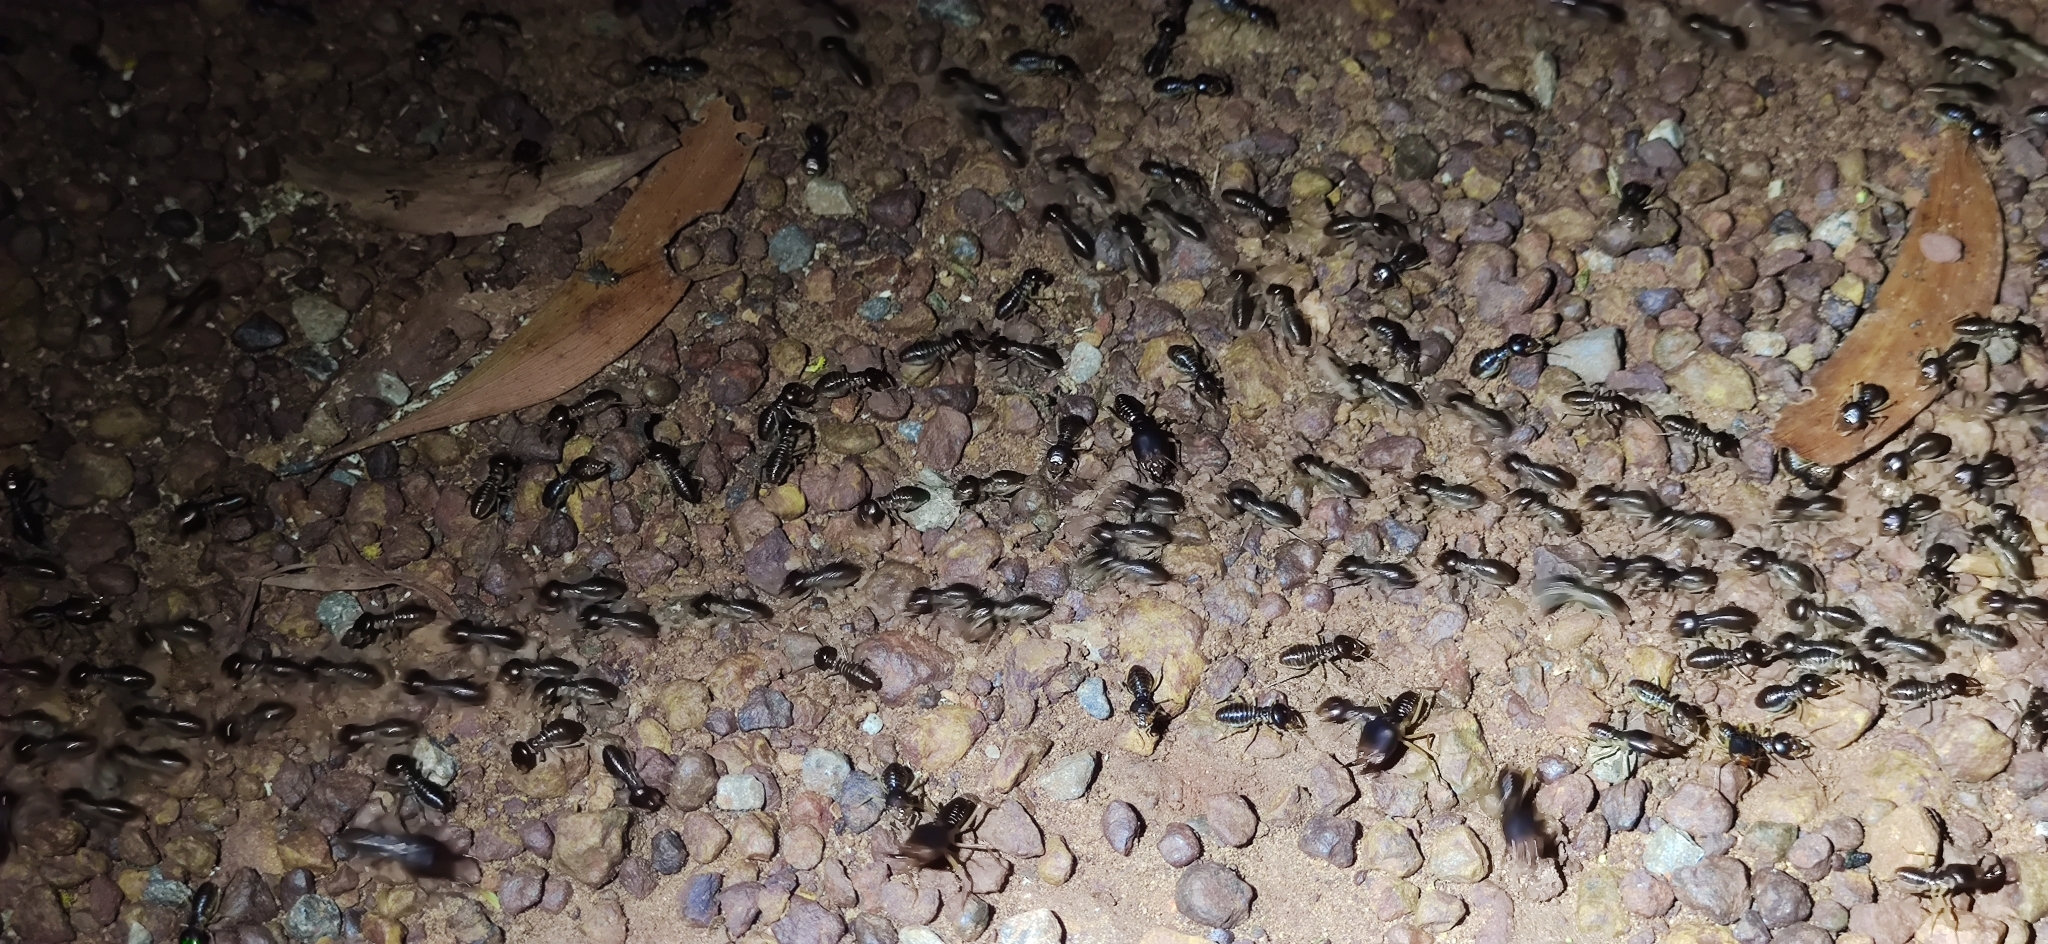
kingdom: Animalia
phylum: Arthropoda
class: Insecta
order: Blattodea
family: Termitidae
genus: Macrotermes
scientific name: Macrotermes carbonarius
